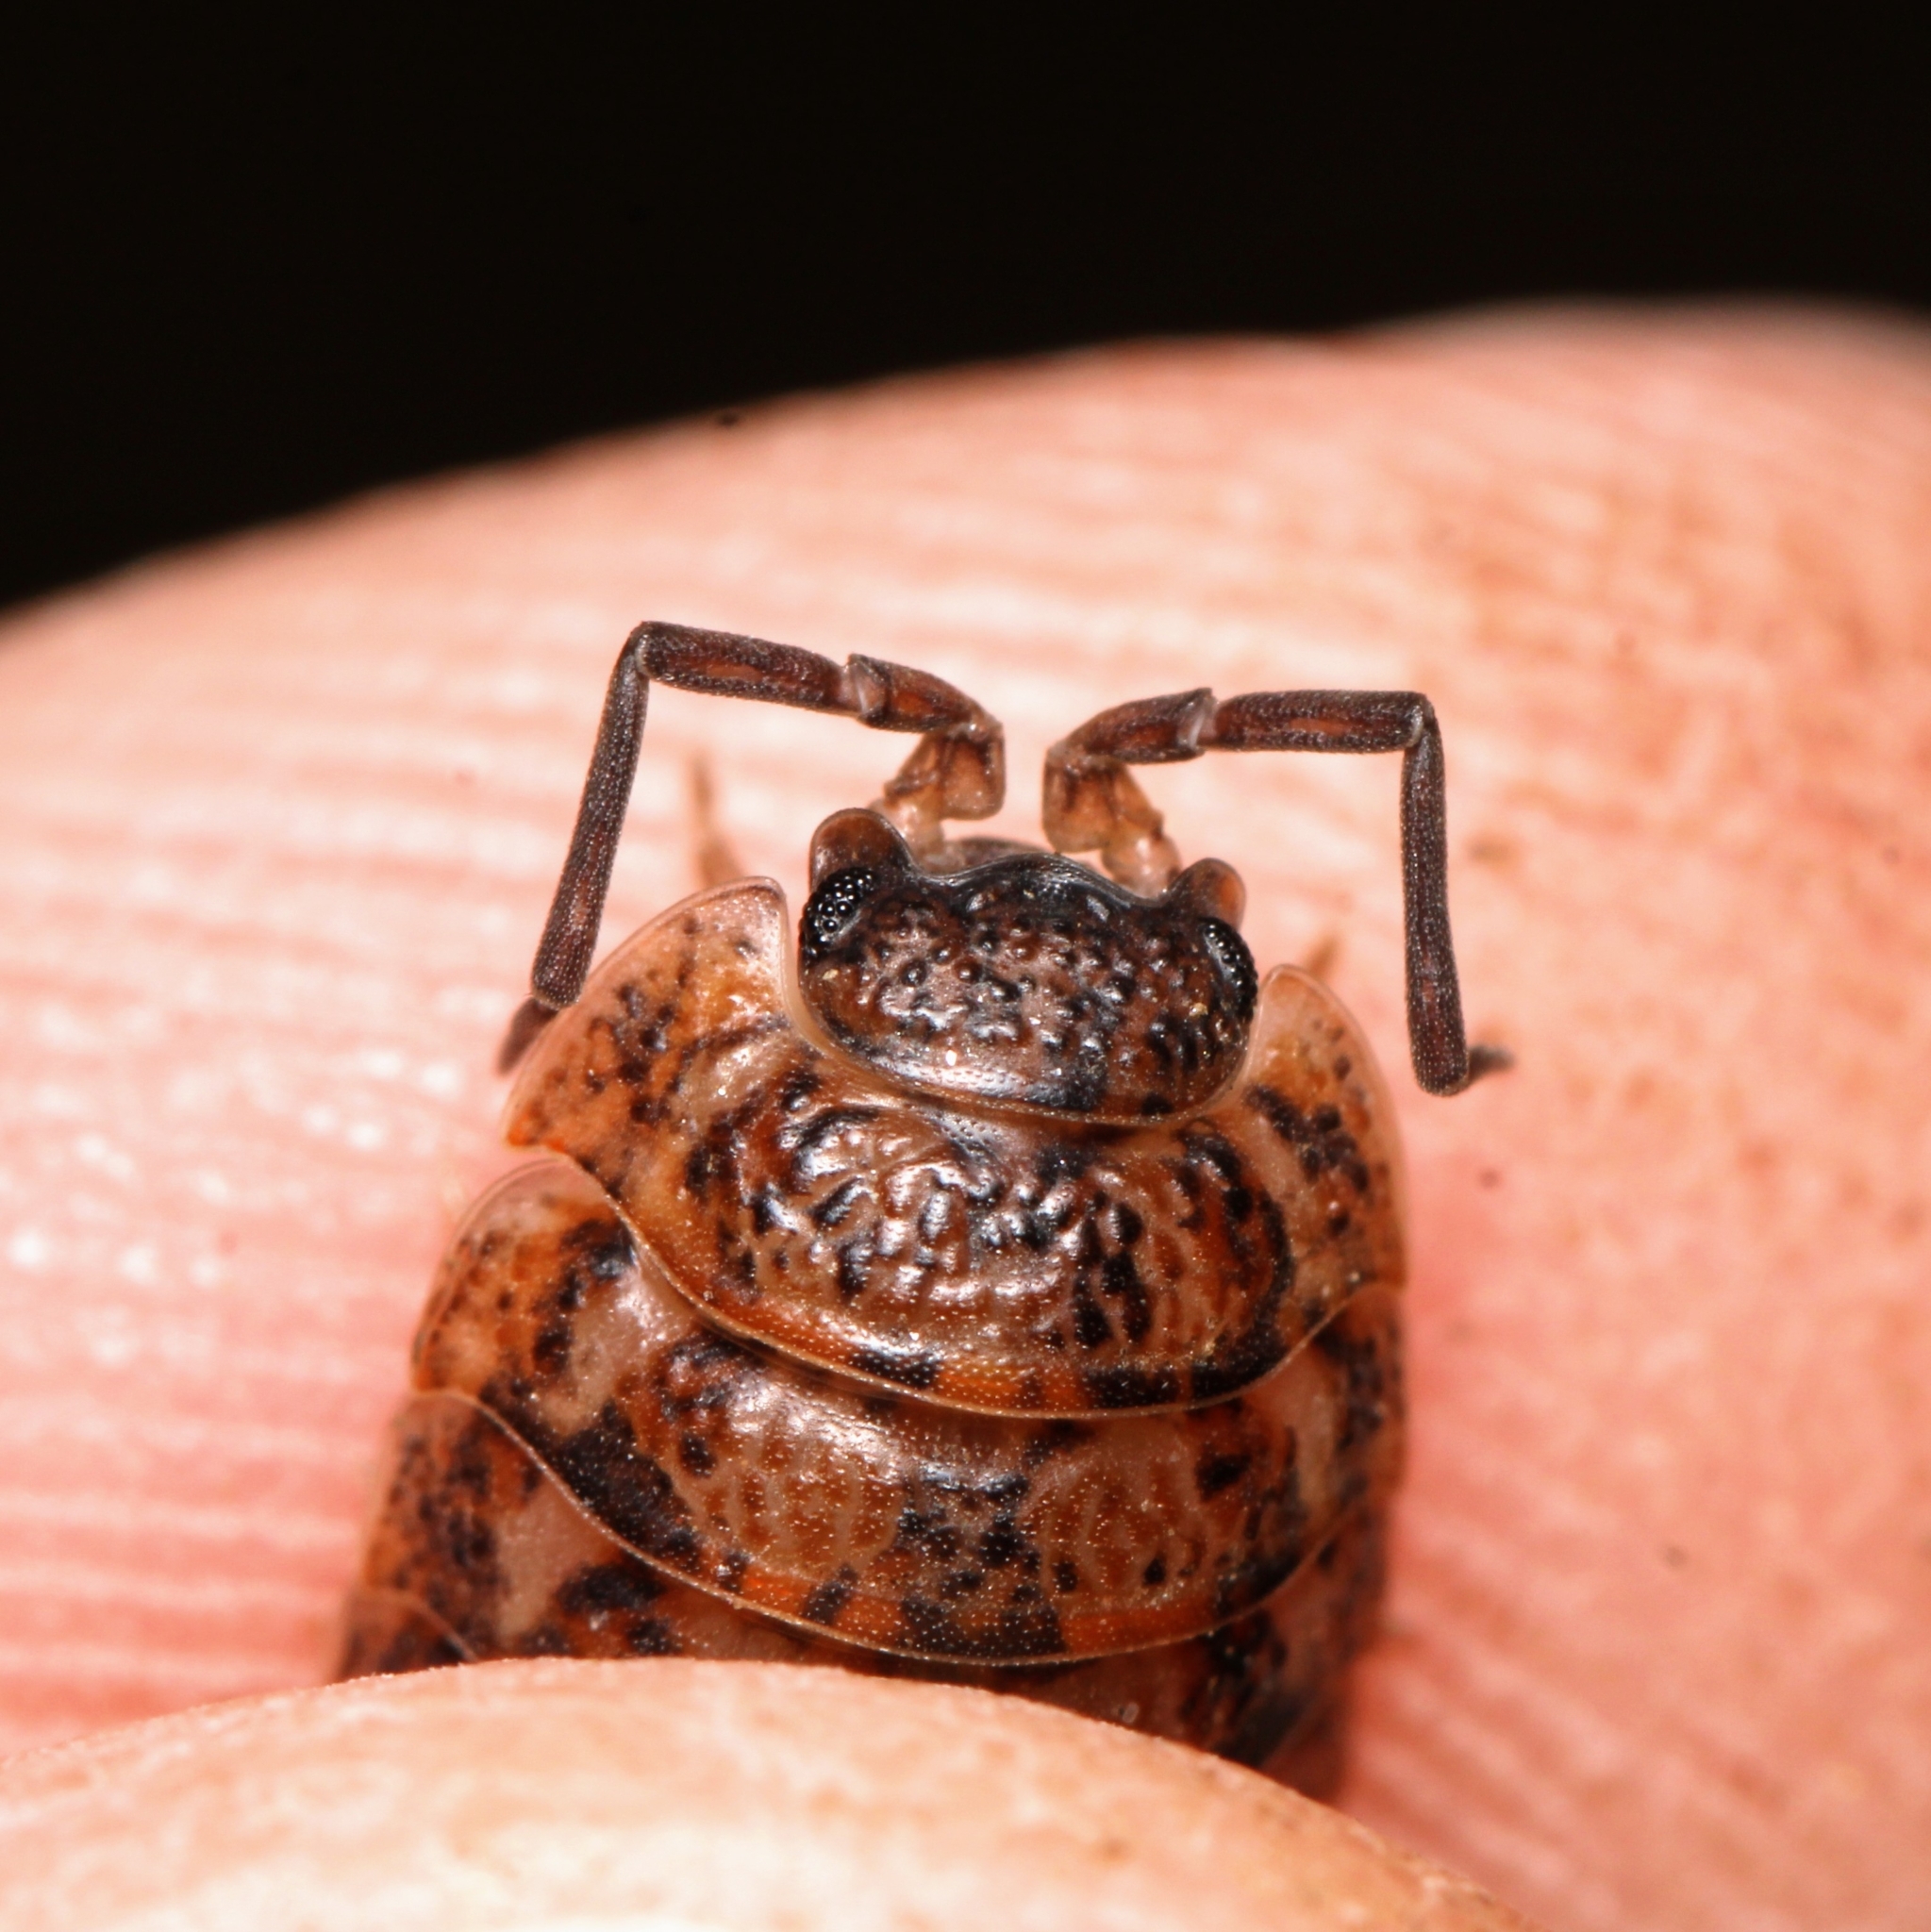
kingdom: Animalia
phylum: Arthropoda
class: Malacostraca
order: Isopoda
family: Trachelipodidae
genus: Trachelipus
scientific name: Trachelipus rathkii
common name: Isopod
